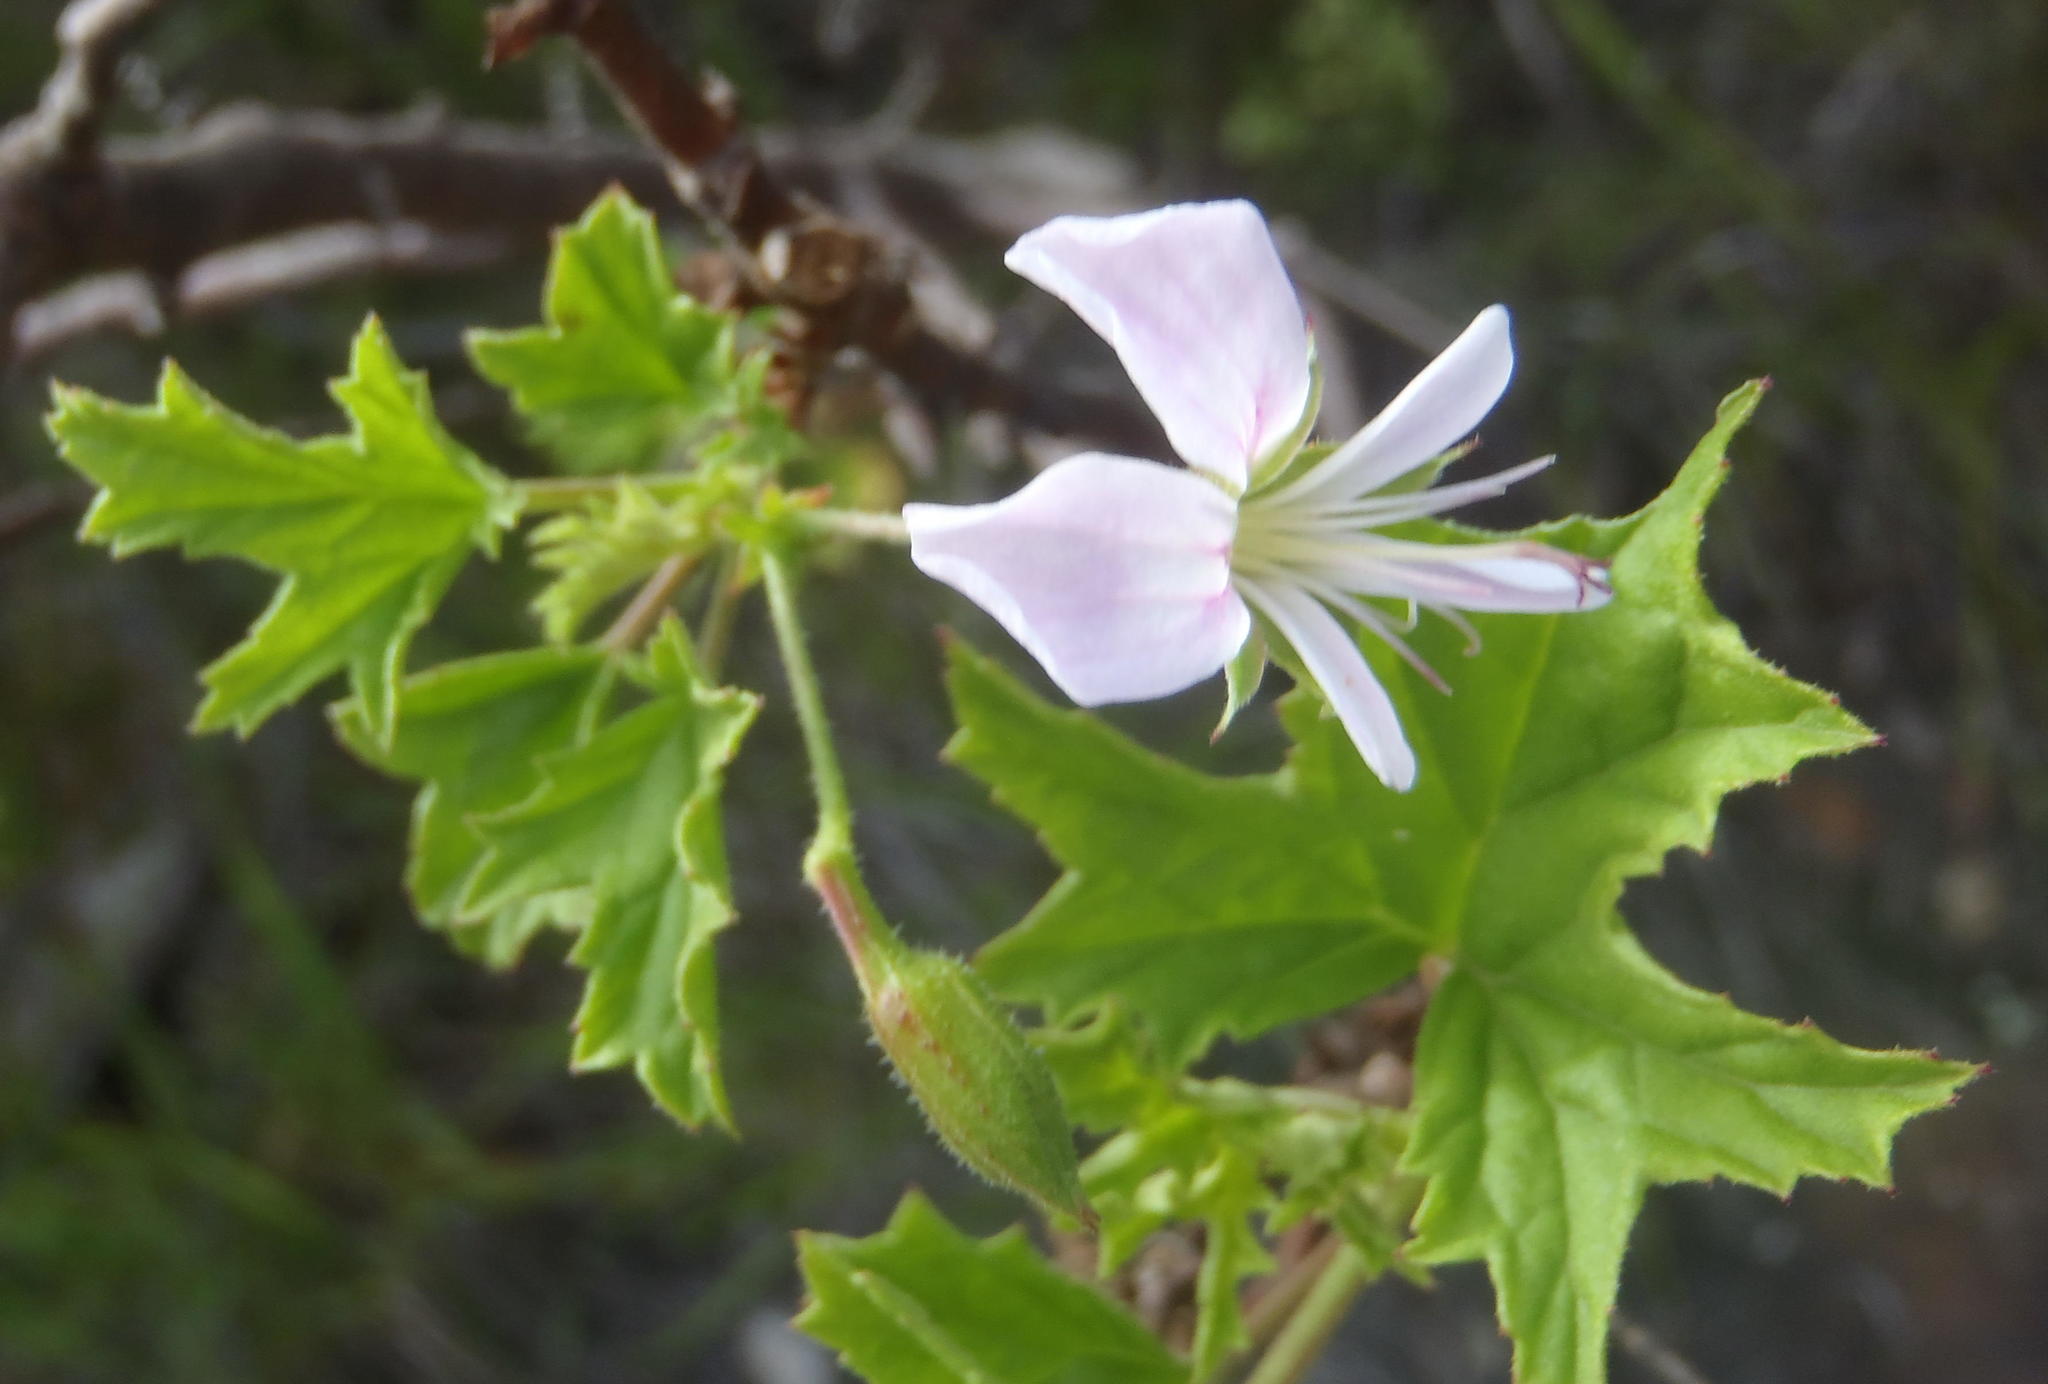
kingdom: Plantae
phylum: Tracheophyta
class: Magnoliopsida
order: Geraniales
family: Geraniaceae
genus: Pelargonium
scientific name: Pelargonium scabrum
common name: Apricot geranium
